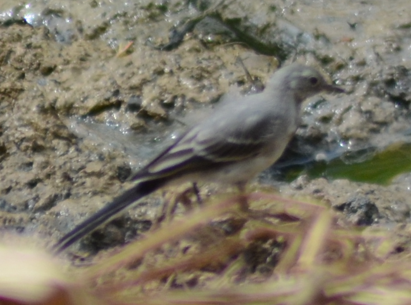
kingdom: Animalia
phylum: Chordata
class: Aves
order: Passeriformes
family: Motacillidae
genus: Motacilla
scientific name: Motacilla alba
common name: White wagtail
